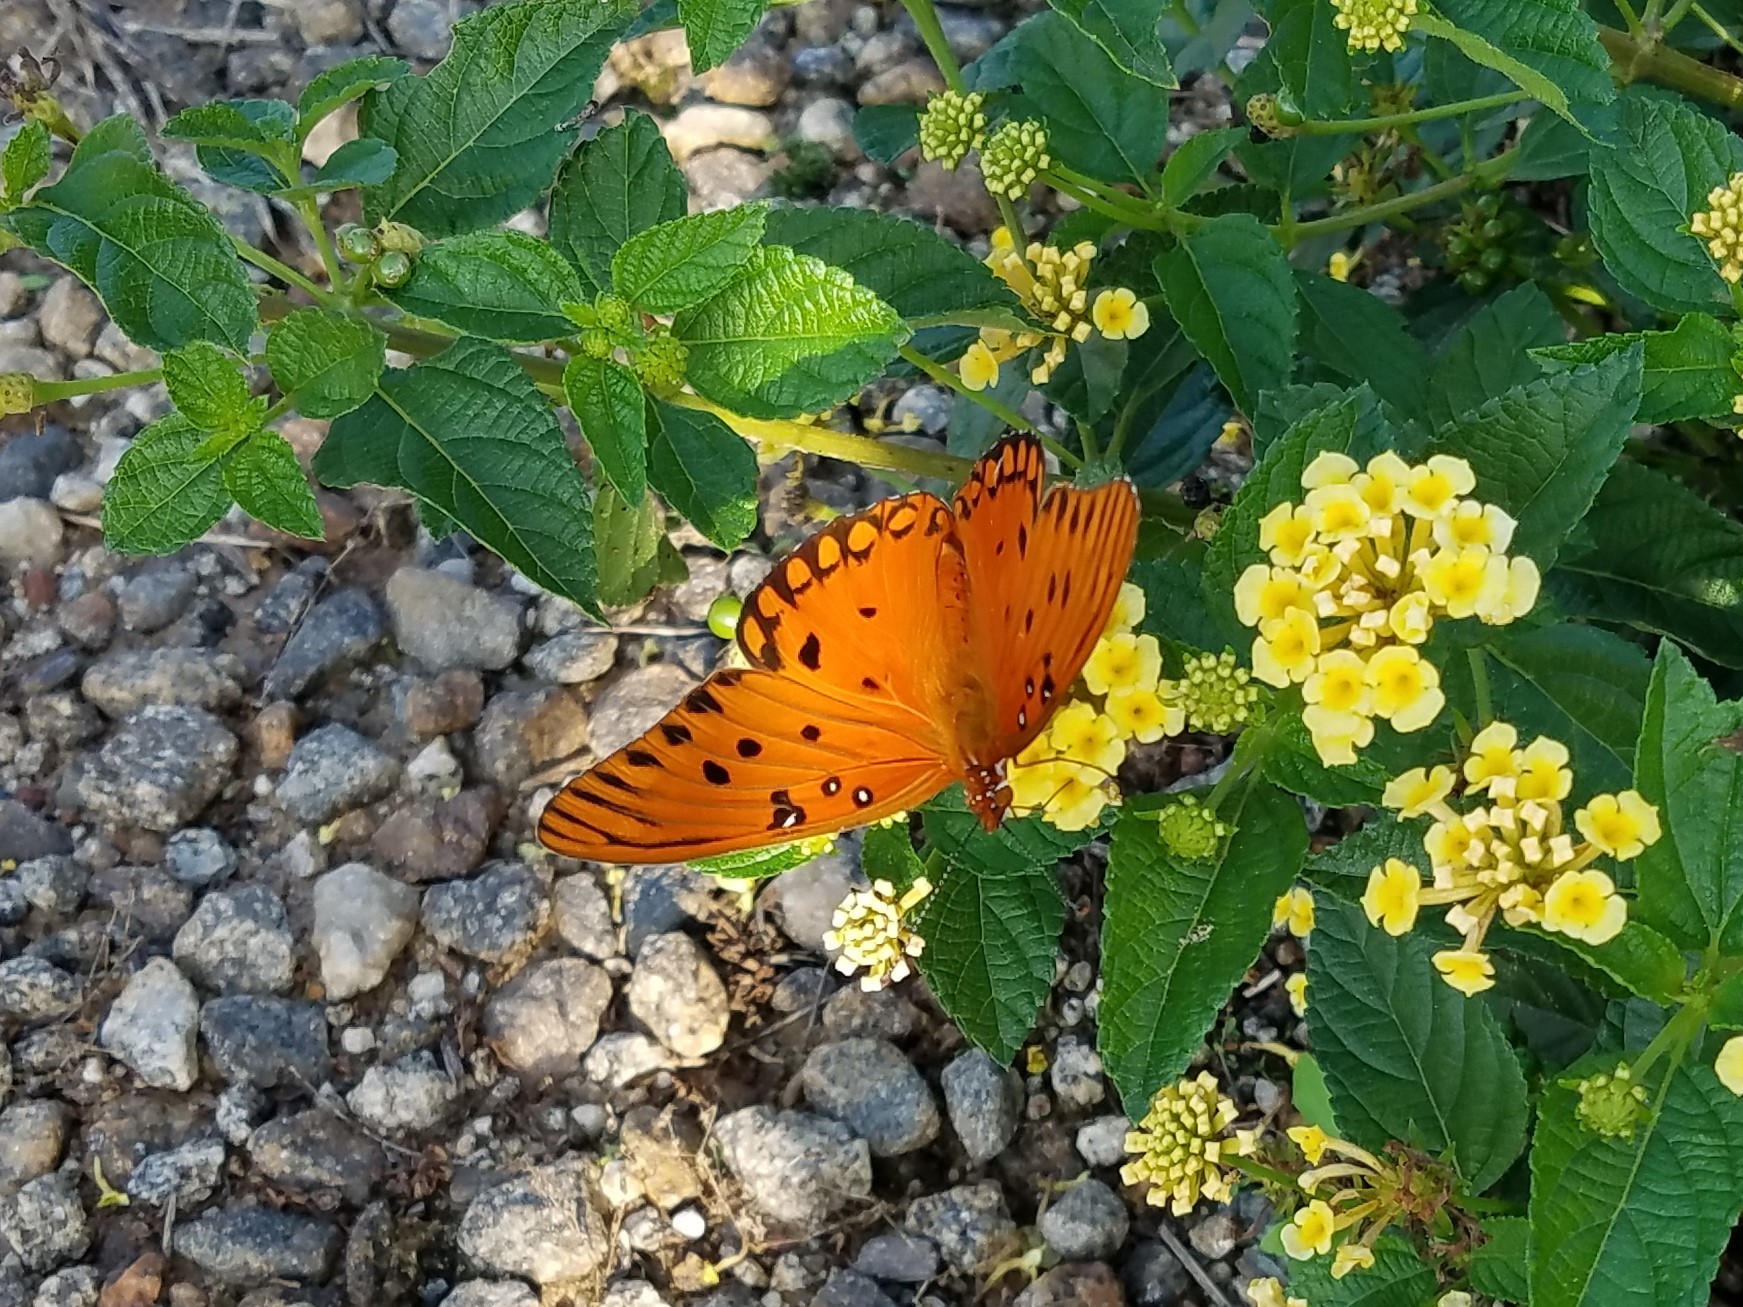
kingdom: Animalia
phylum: Arthropoda
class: Insecta
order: Lepidoptera
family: Nymphalidae
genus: Dione
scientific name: Dione vanillae
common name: Gulf fritillary
